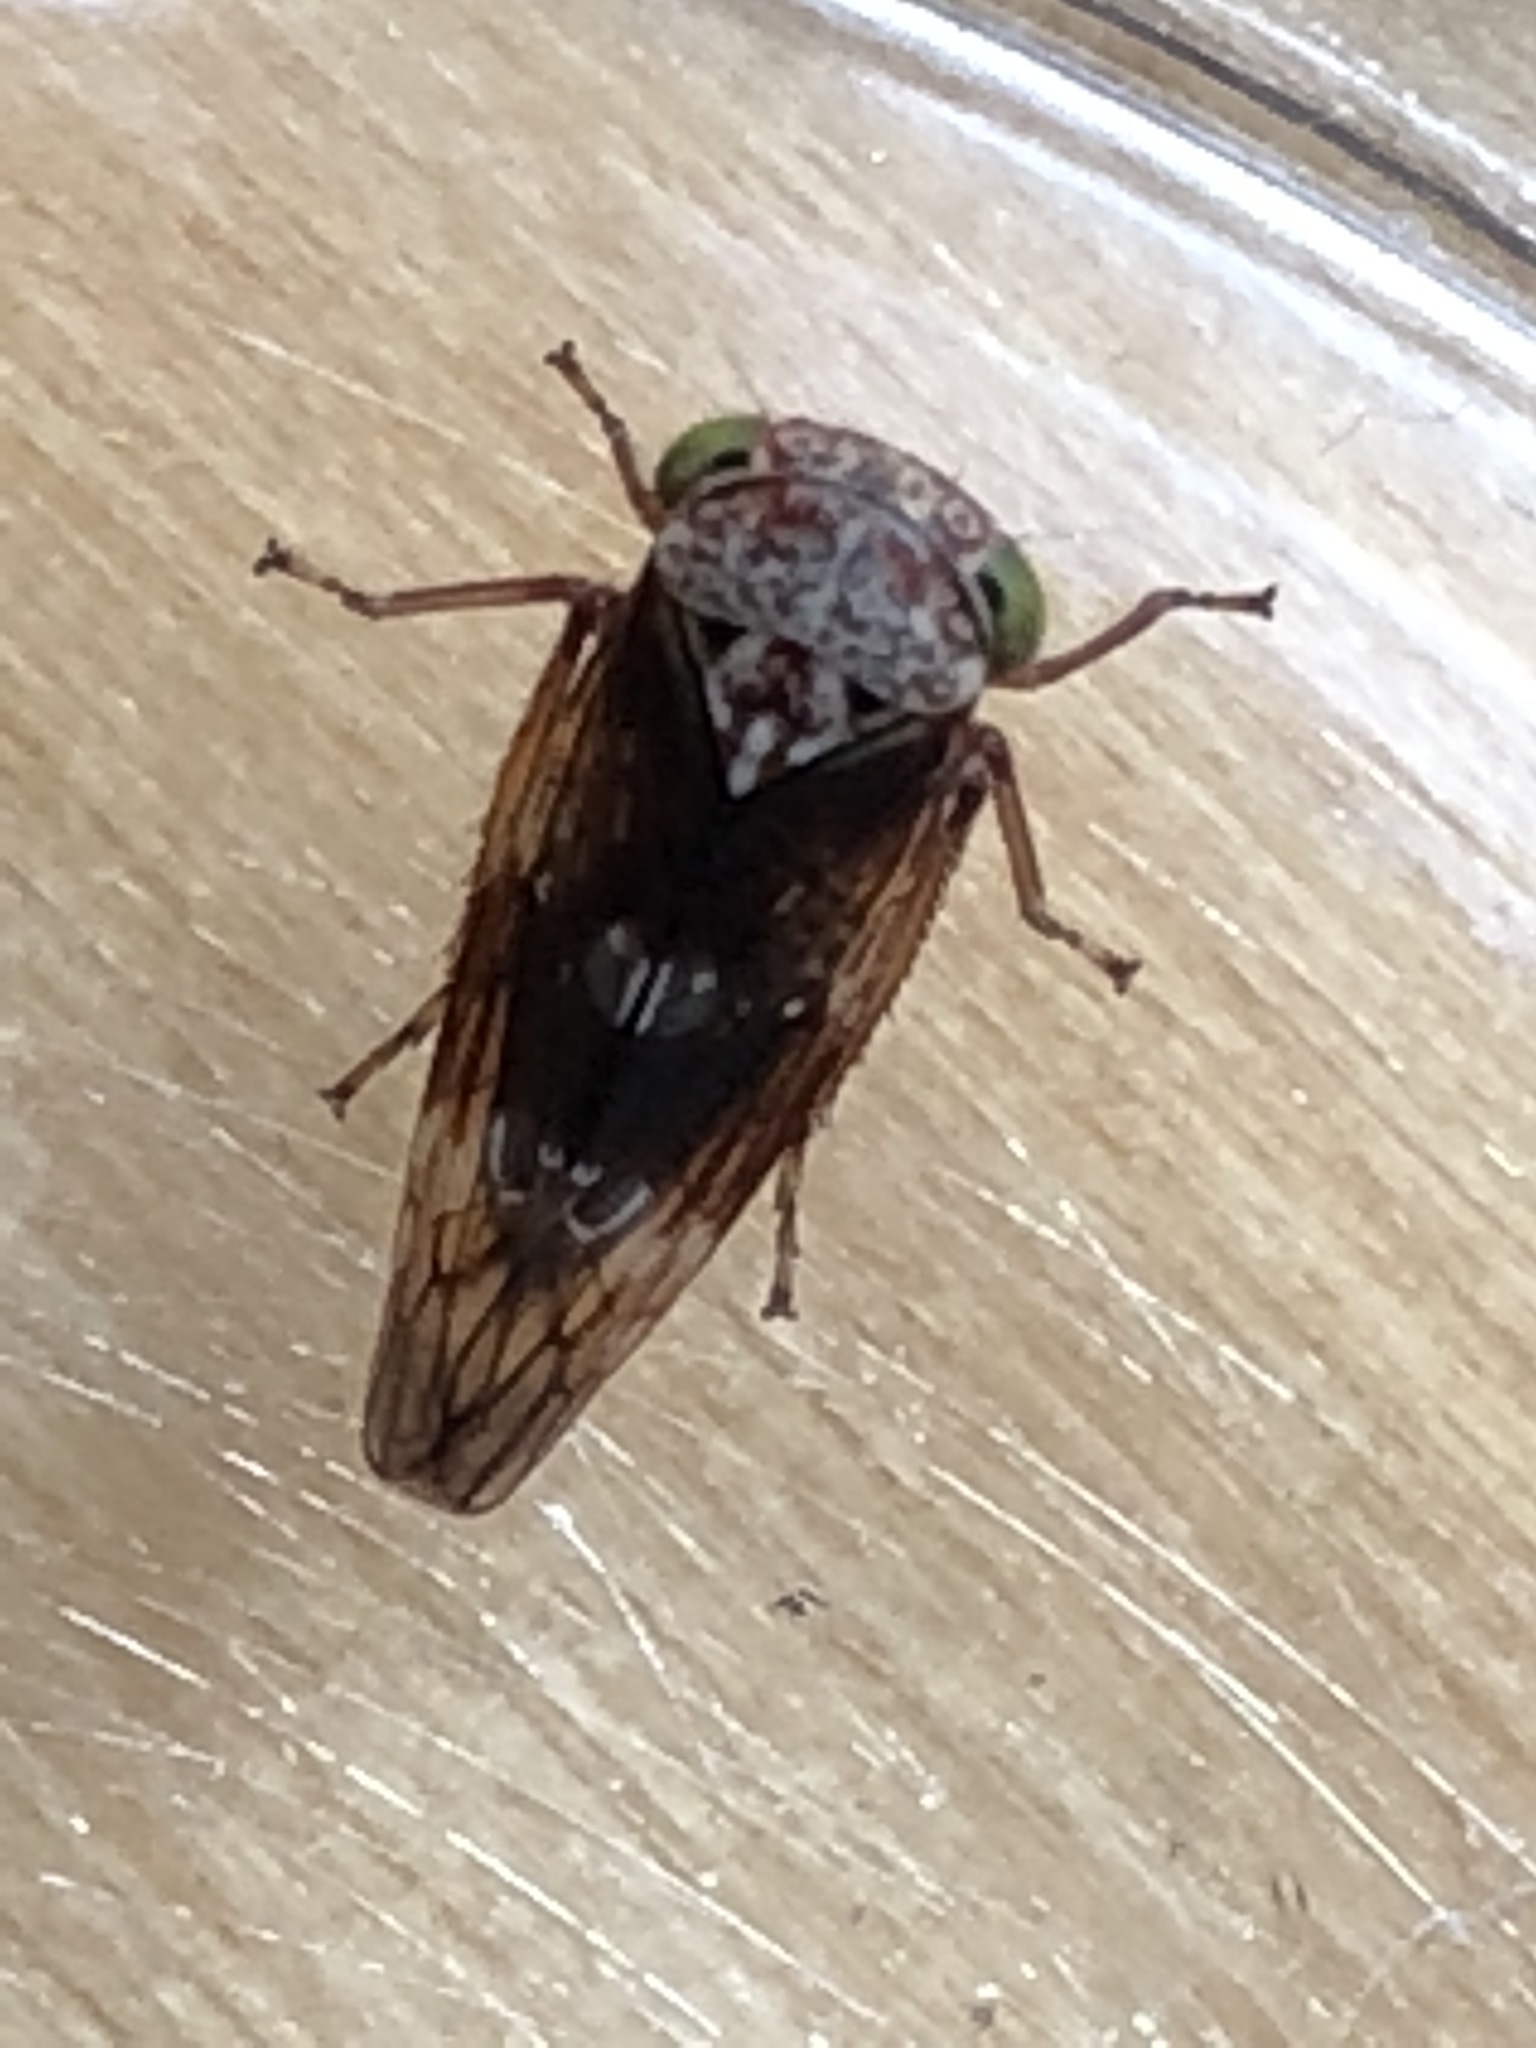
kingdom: Animalia
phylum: Arthropoda
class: Insecta
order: Hemiptera
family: Cicadellidae
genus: Acericerus
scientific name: Acericerus ribauti
